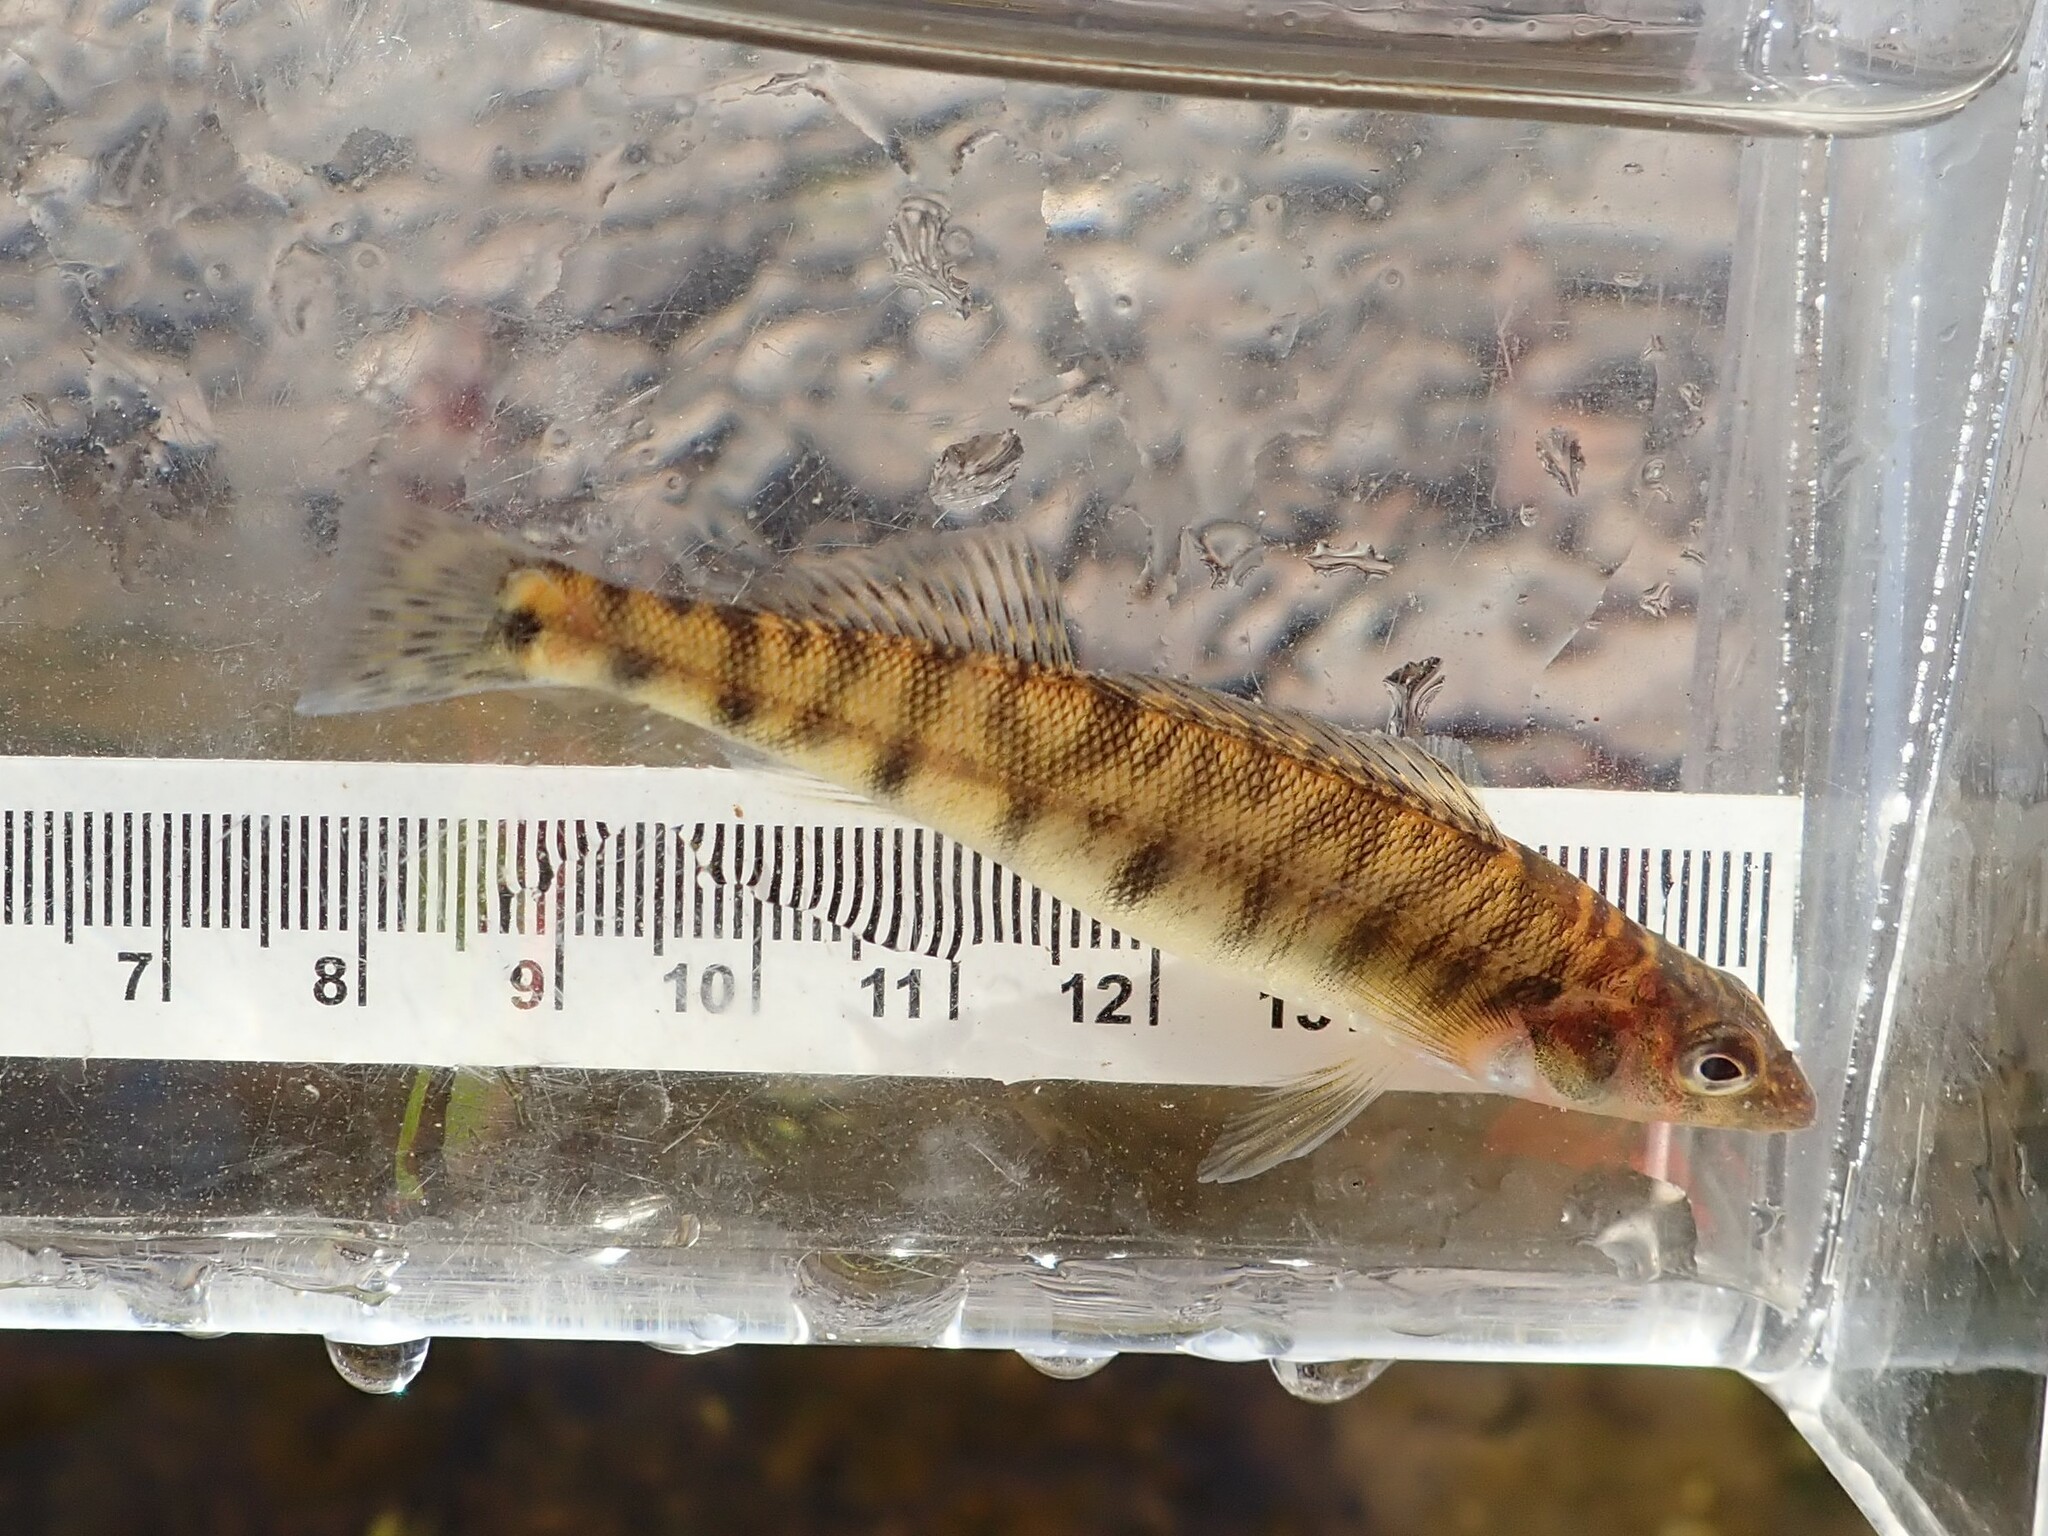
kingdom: Animalia
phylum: Chordata
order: Perciformes
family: Percidae
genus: Percina
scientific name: Percina caprodes
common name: Logperch
